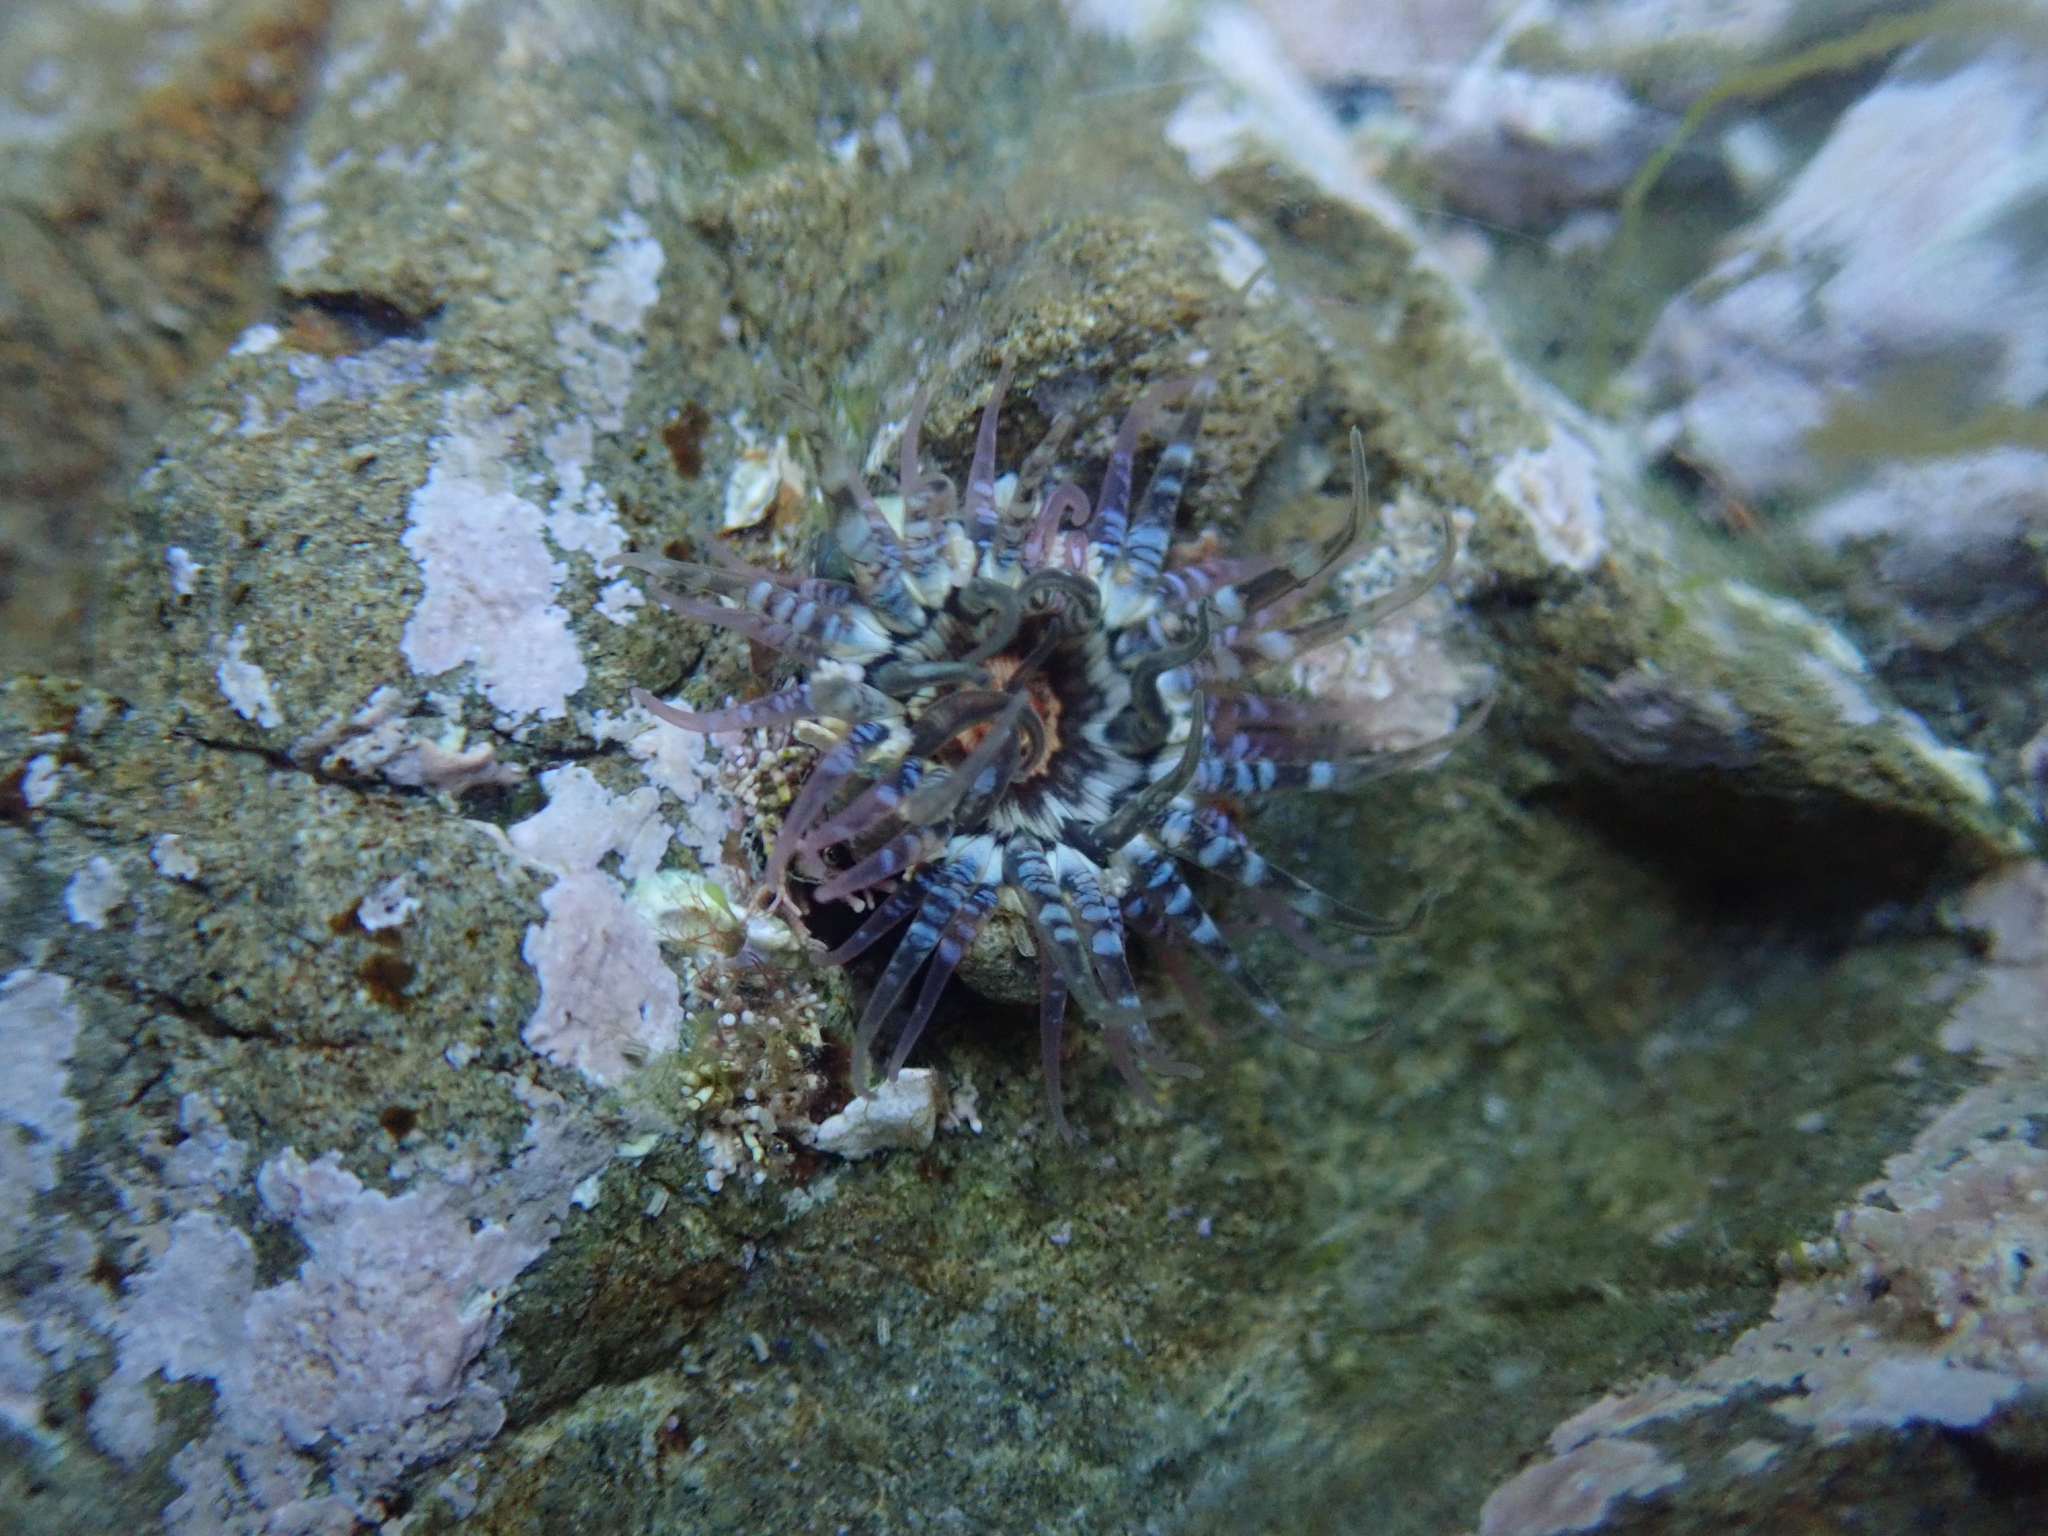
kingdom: Animalia
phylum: Cnidaria
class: Anthozoa
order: Actiniaria
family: Actiniidae
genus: Oulactis
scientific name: Oulactis muscosa
